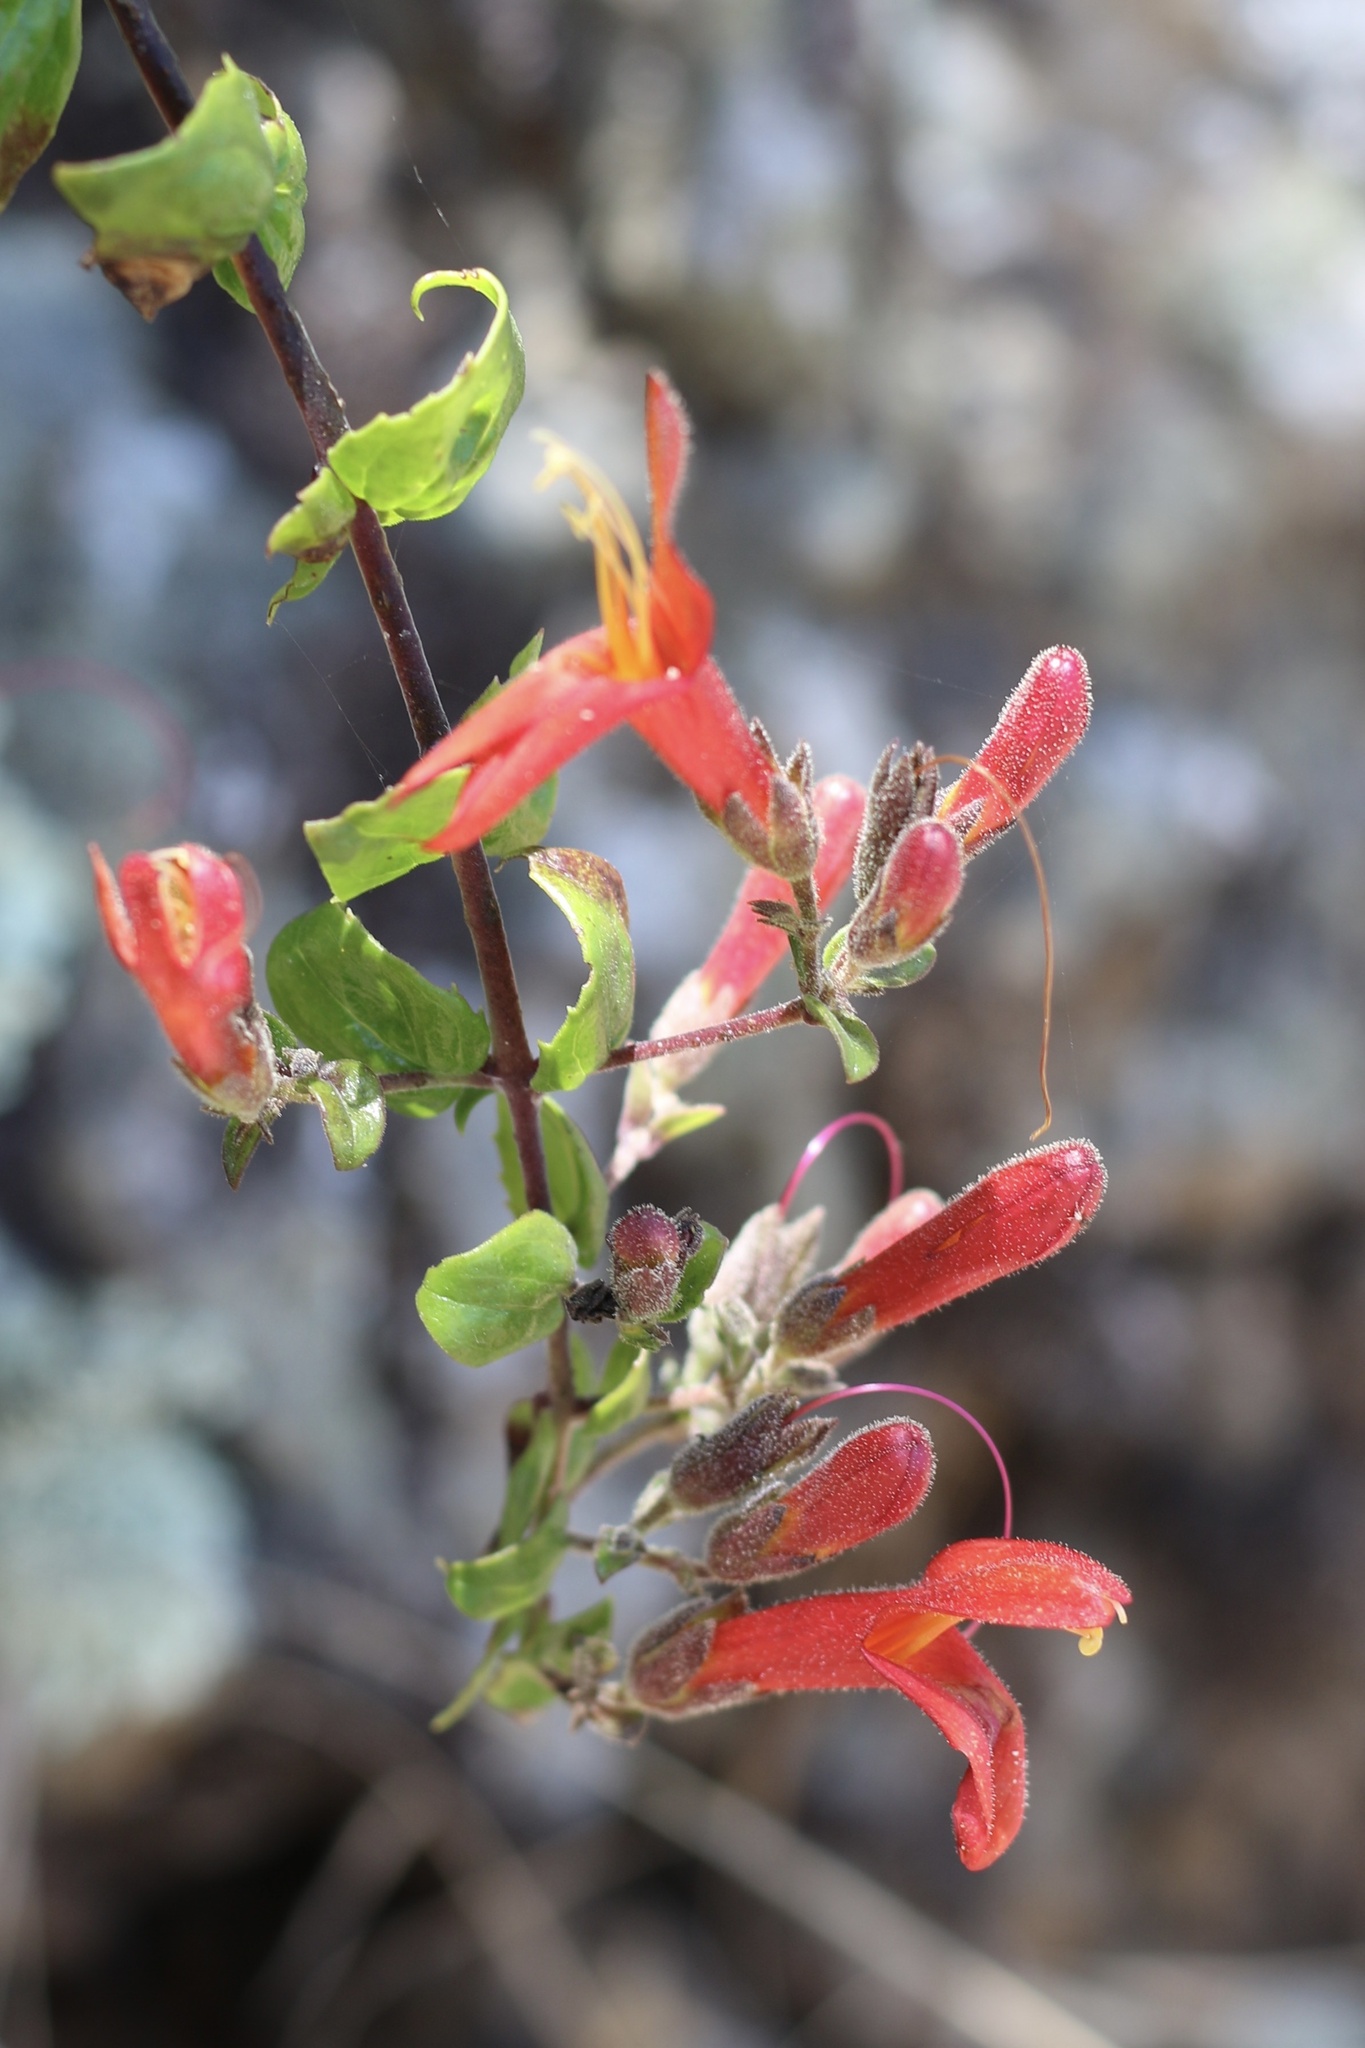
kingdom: Plantae
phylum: Tracheophyta
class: Magnoliopsida
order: Lamiales
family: Plantaginaceae
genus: Keckiella
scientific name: Keckiella cordifolia
